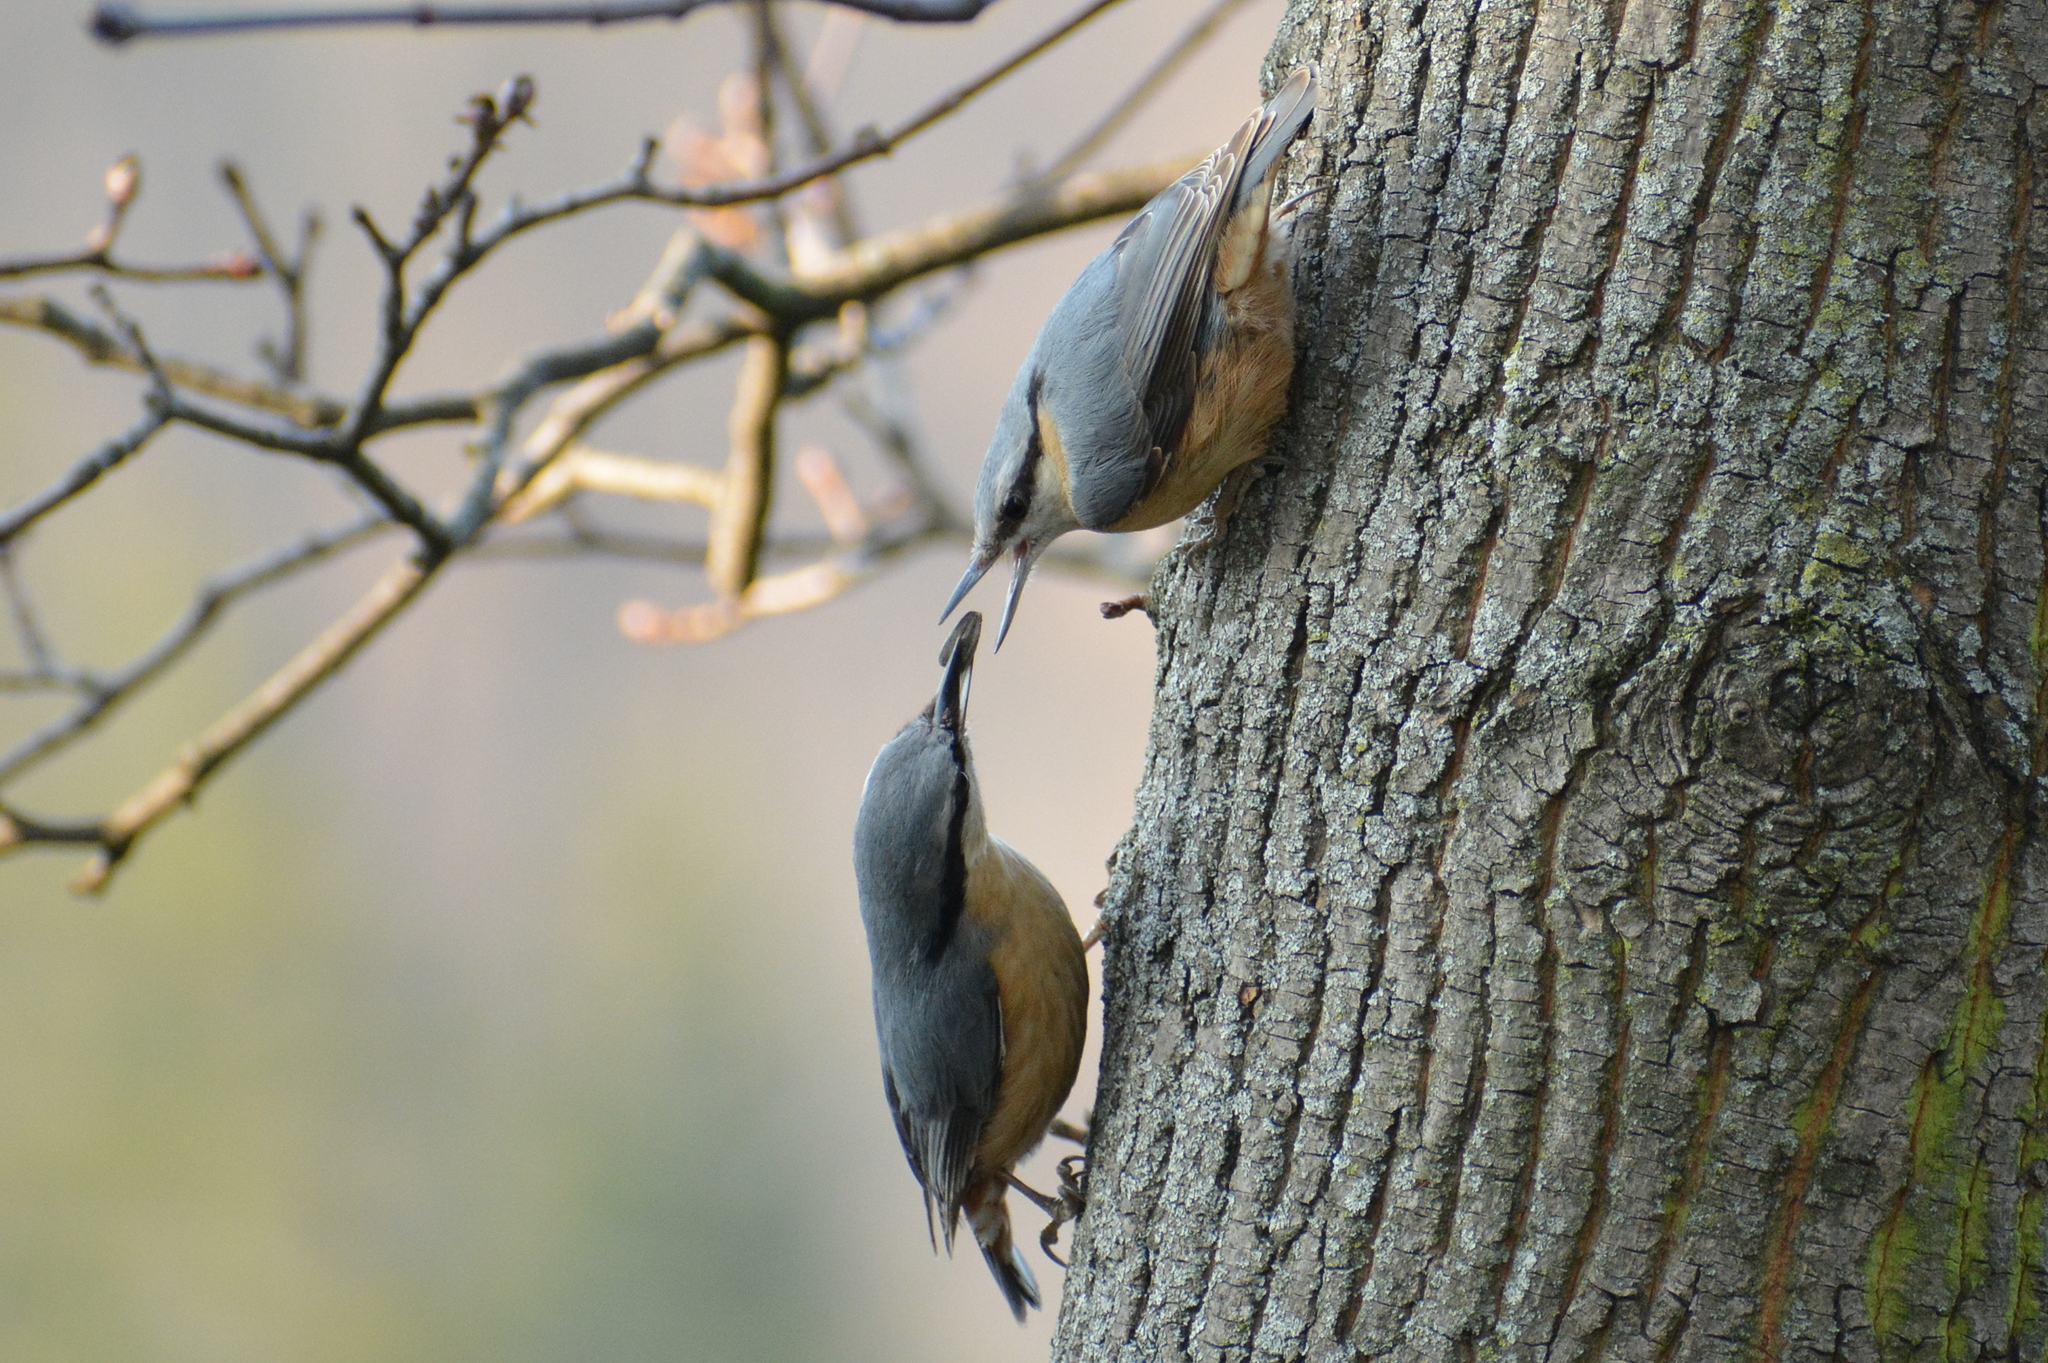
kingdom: Animalia
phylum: Chordata
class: Aves
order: Passeriformes
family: Sittidae
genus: Sitta
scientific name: Sitta europaea
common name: Eurasian nuthatch
